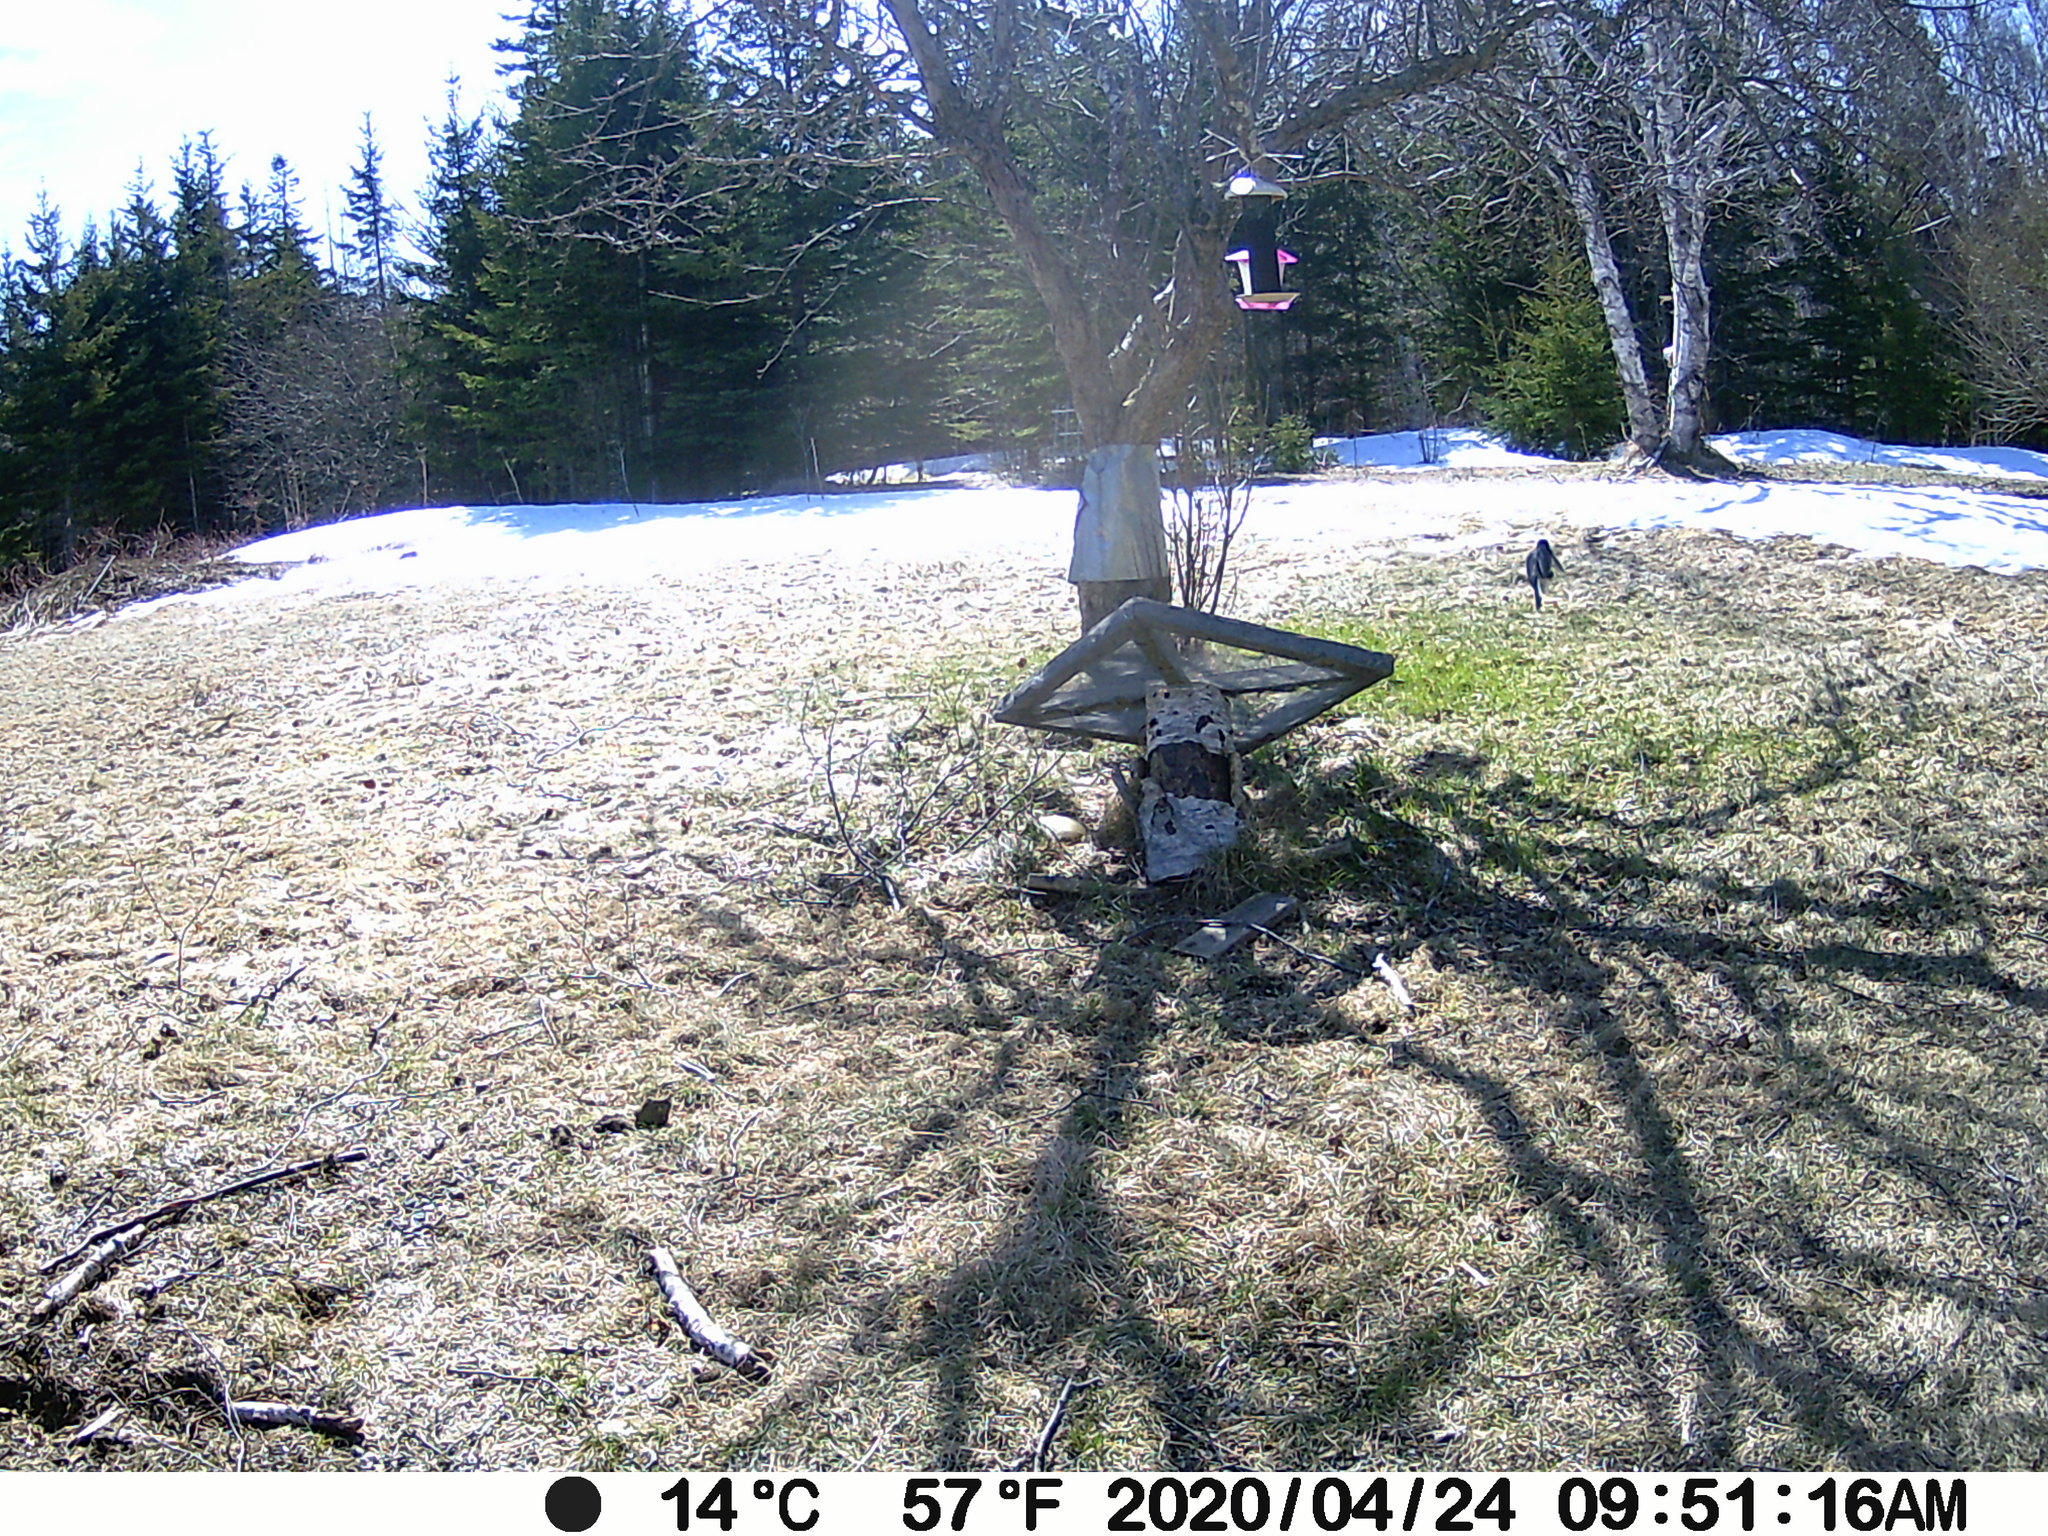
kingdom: Animalia
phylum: Chordata
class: Aves
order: Passeriformes
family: Paridae
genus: Poecile
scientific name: Poecile atricapillus
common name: Black-capped chickadee
